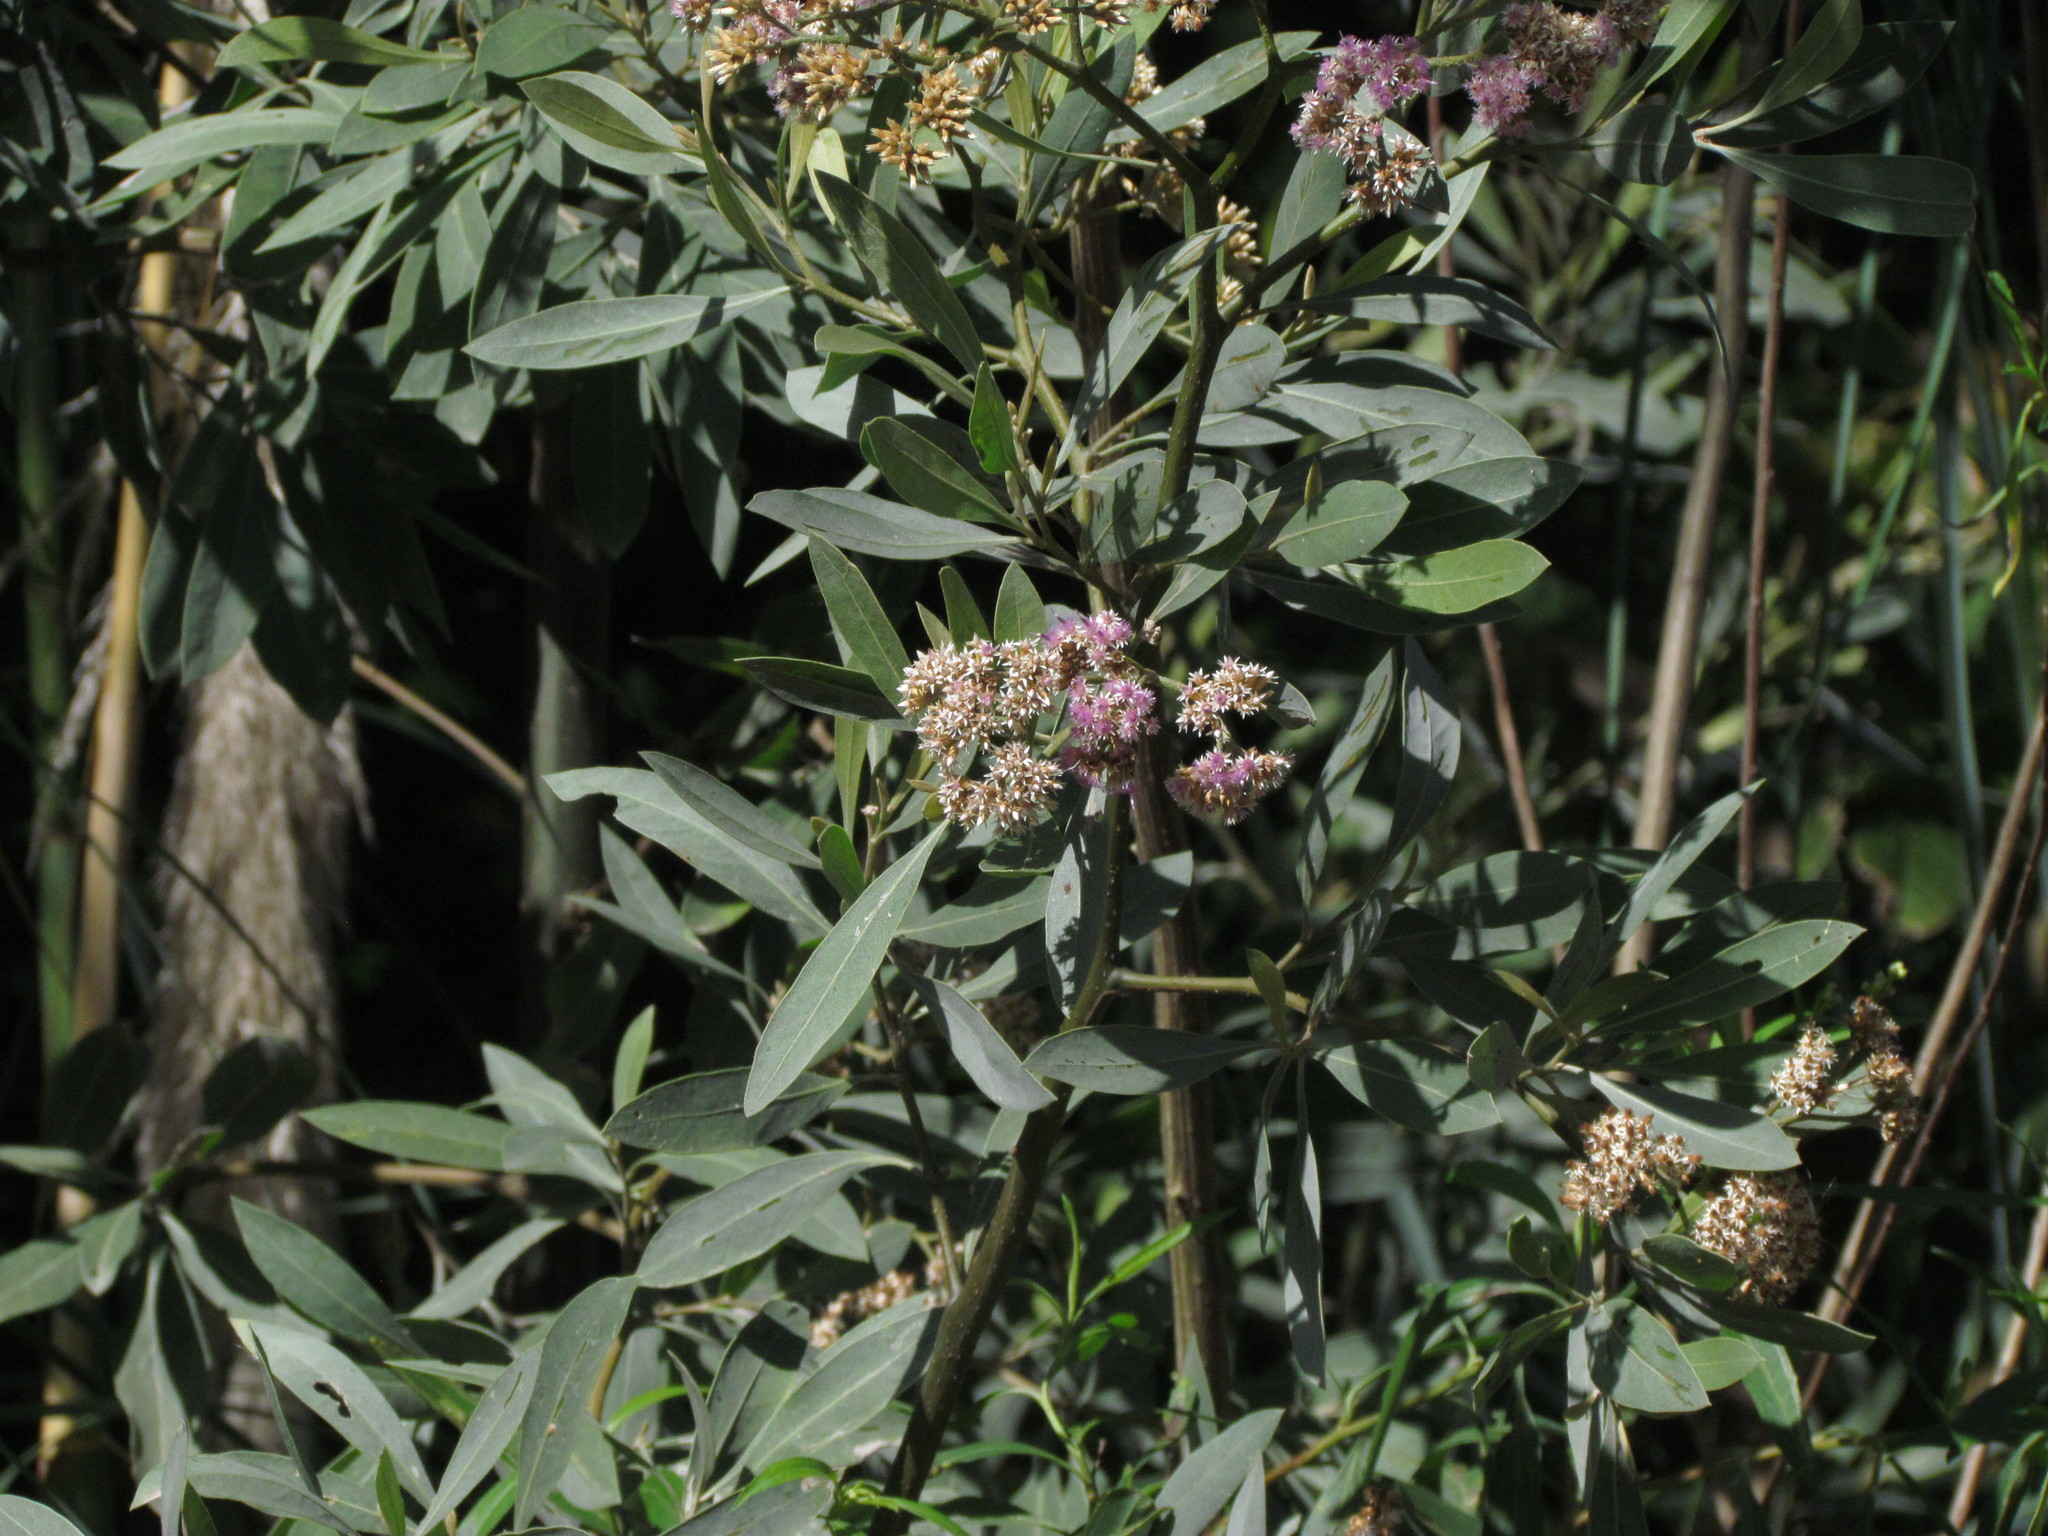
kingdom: Plantae
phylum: Tracheophyta
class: Magnoliopsida
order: Asterales
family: Asteraceae
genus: Tessaria
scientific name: Tessaria integrifolia
